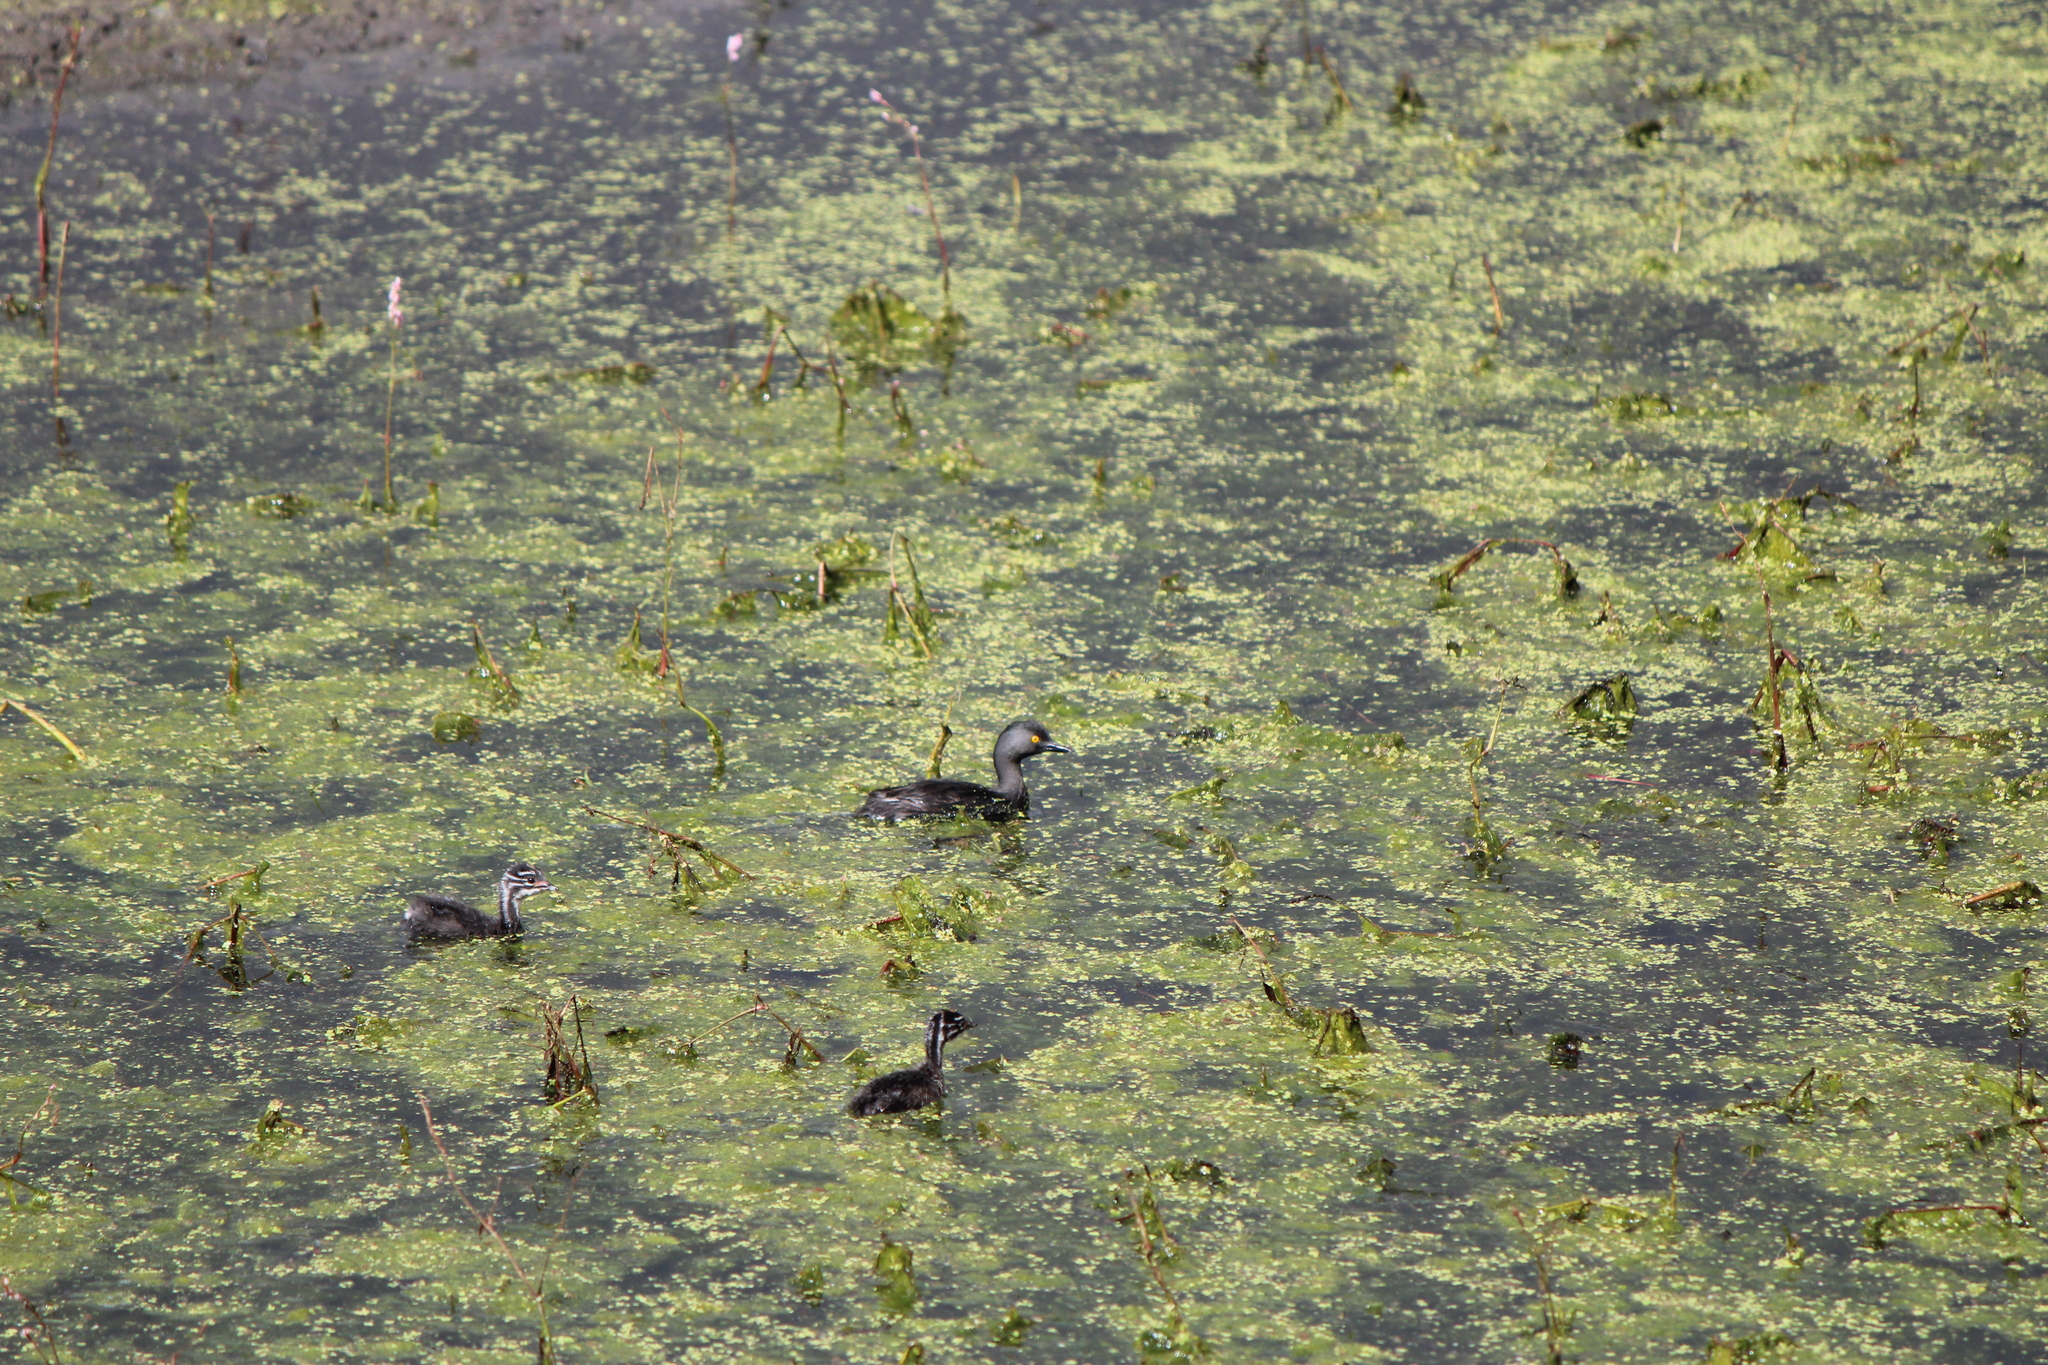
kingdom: Animalia
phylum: Chordata
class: Aves
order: Podicipediformes
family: Podicipedidae
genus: Tachybaptus
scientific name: Tachybaptus dominicus
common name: Least grebe
